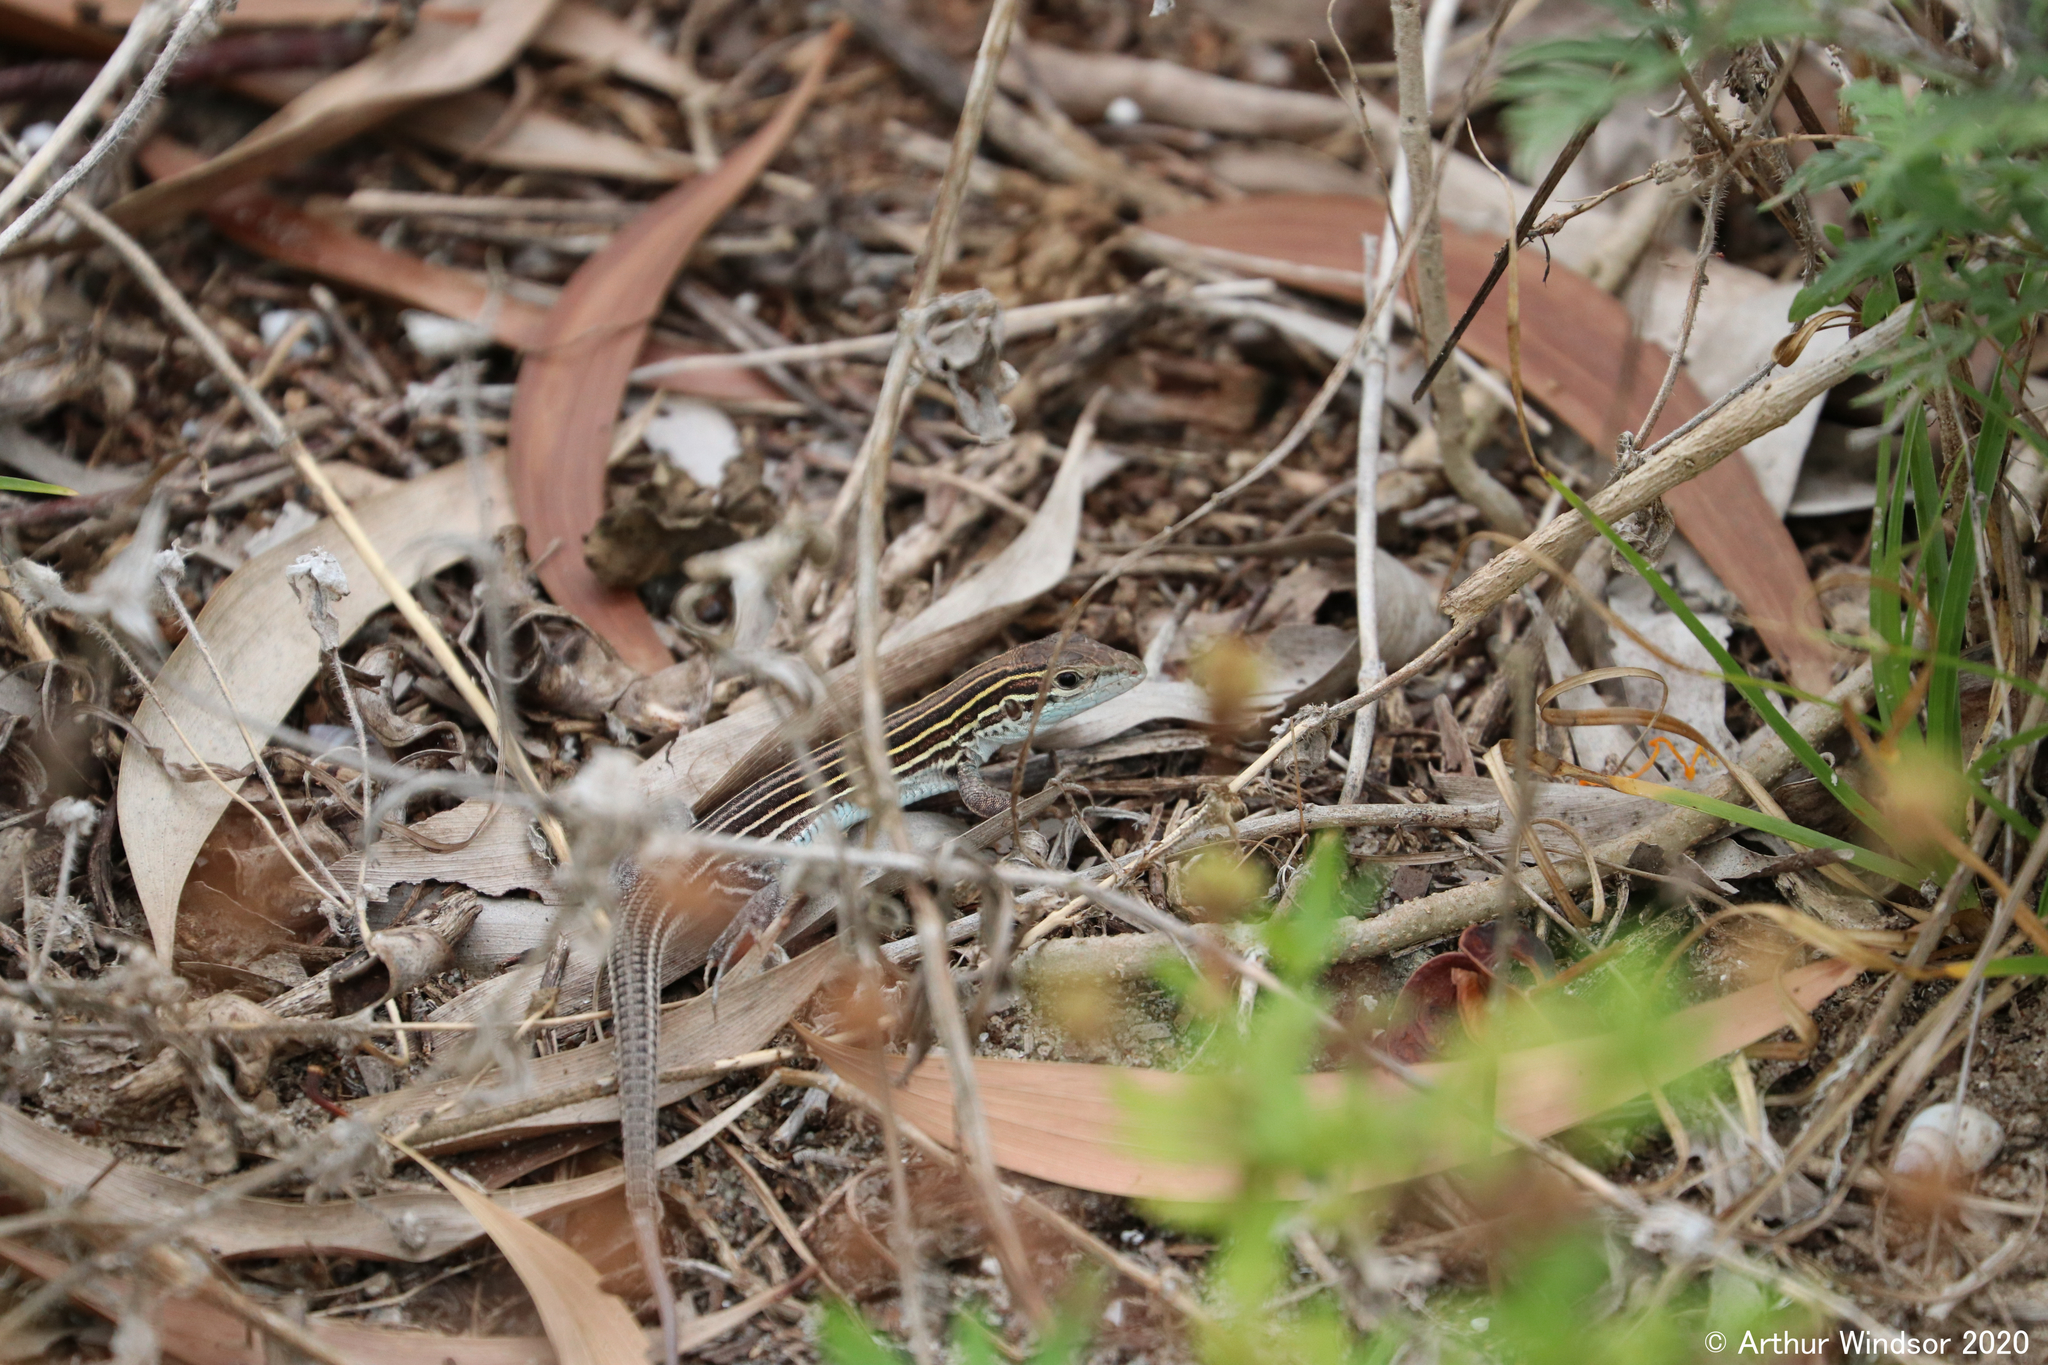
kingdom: Animalia
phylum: Chordata
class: Squamata
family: Teiidae
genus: Aspidoscelis
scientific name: Aspidoscelis sexlineatus
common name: Six-lined racerunner
